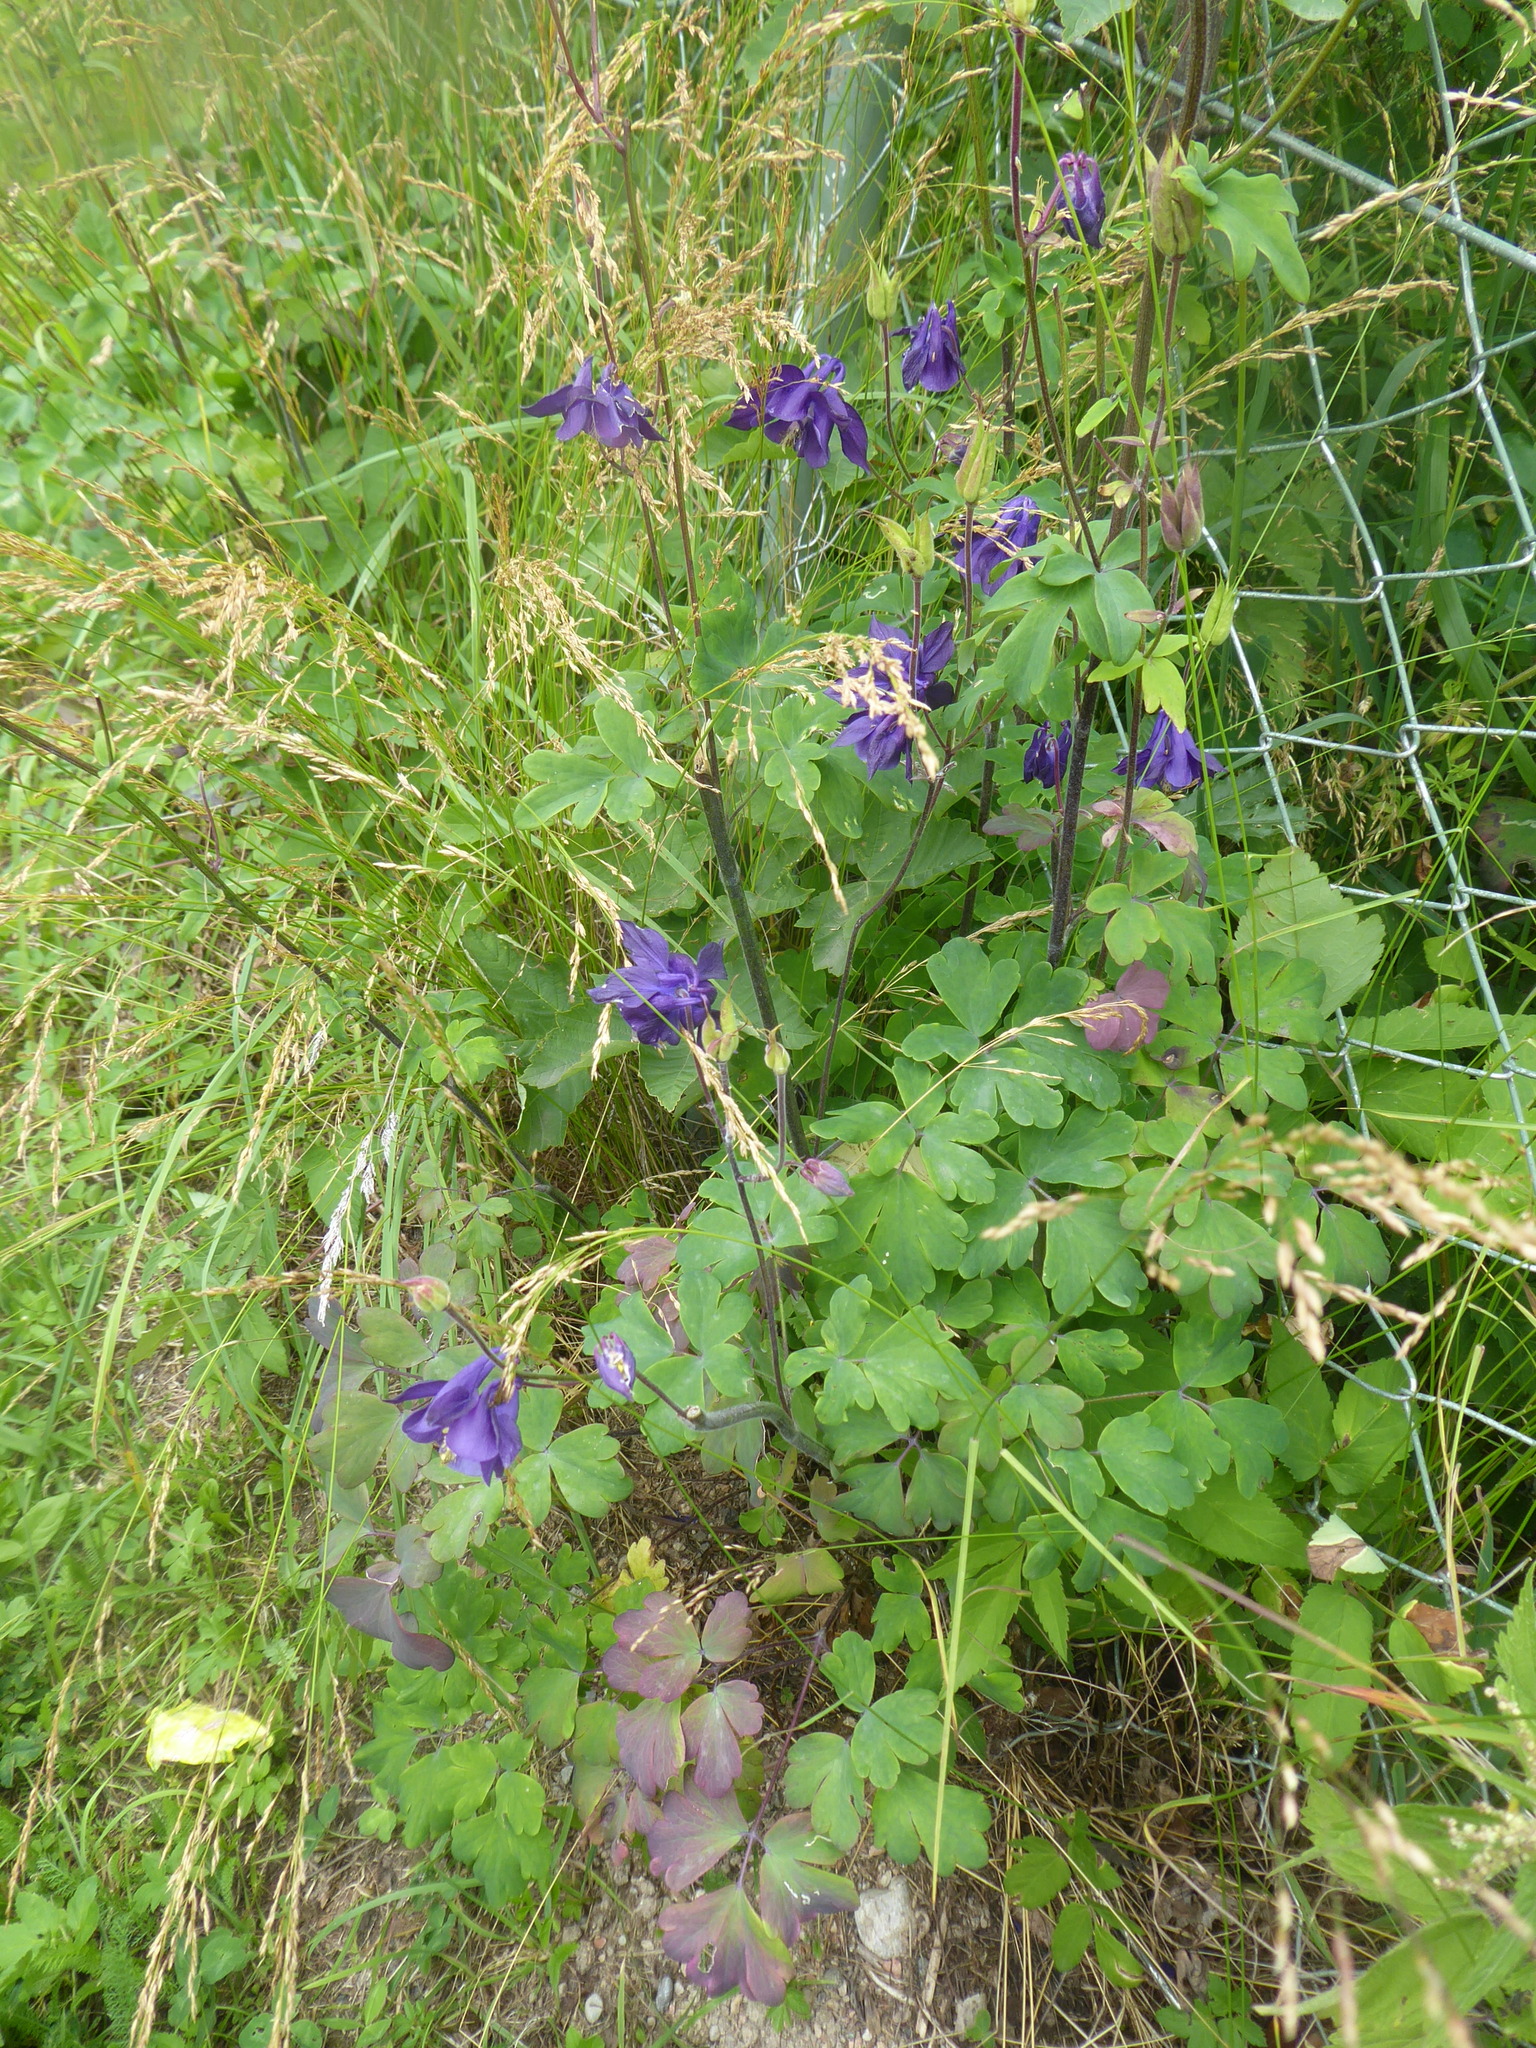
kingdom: Plantae
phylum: Tracheophyta
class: Magnoliopsida
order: Ranunculales
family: Ranunculaceae
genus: Aquilegia
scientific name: Aquilegia vulgaris
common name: Columbine
